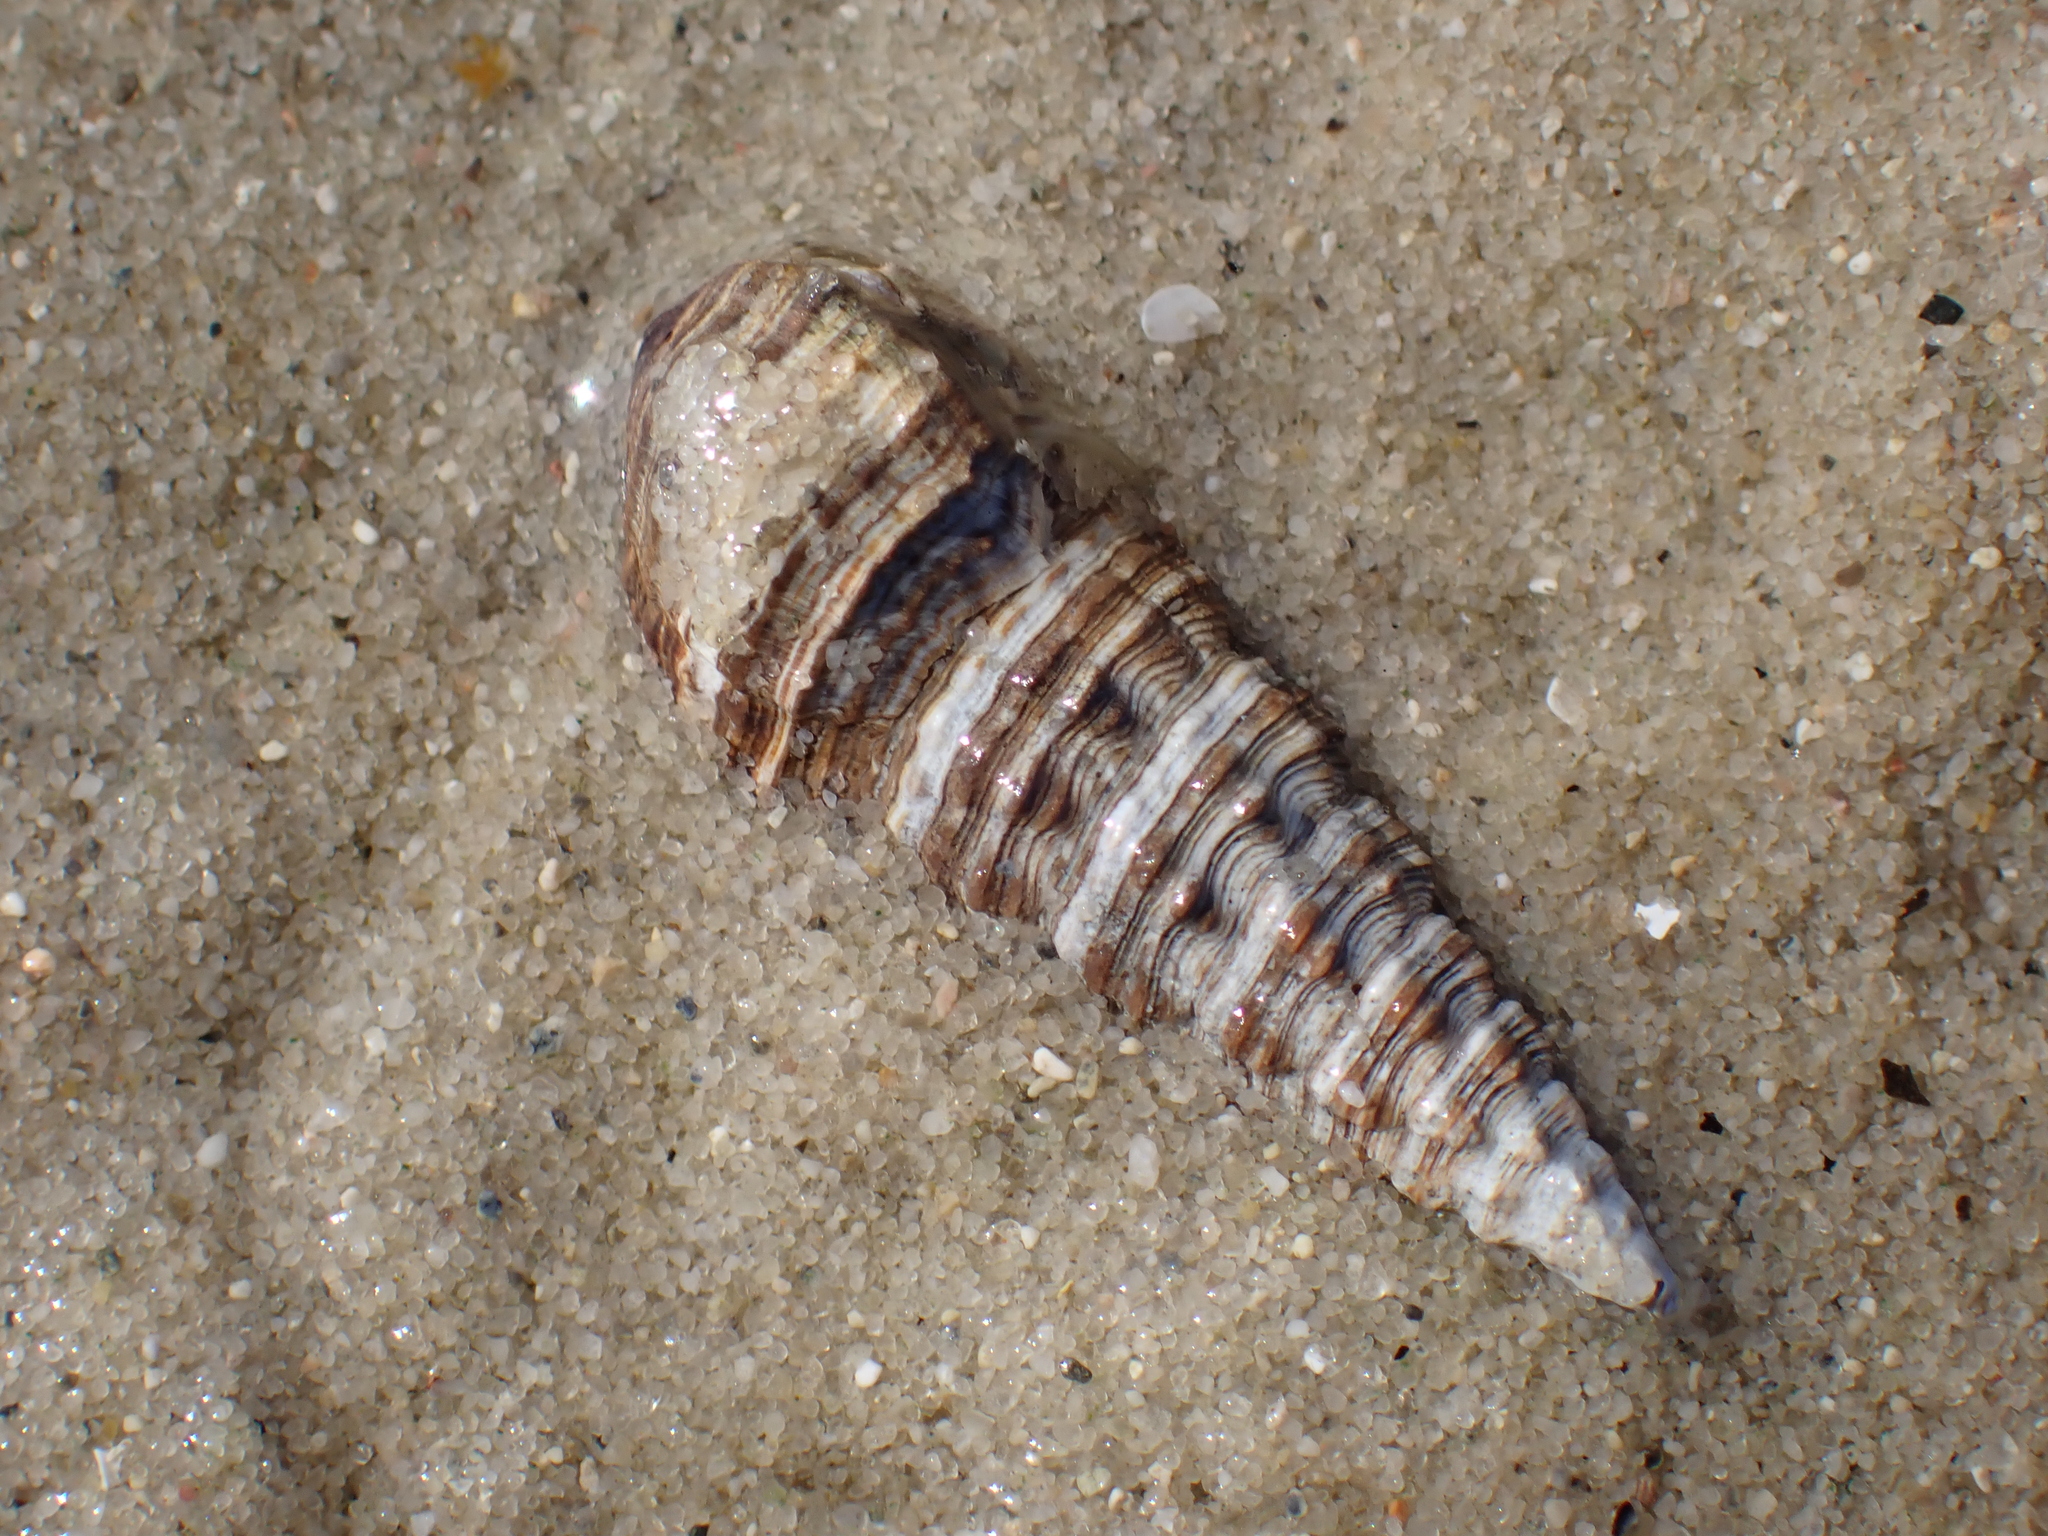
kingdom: Animalia
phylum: Mollusca
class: Gastropoda
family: Batillariidae
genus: Batillaria
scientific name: Batillaria australis
